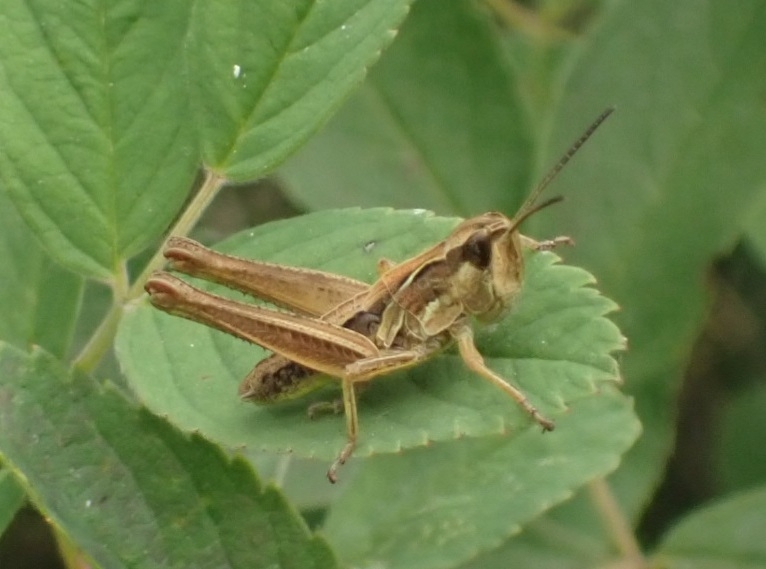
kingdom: Animalia
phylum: Arthropoda
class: Insecta
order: Orthoptera
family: Acrididae
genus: Chorthippus
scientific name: Chorthippus fallax
